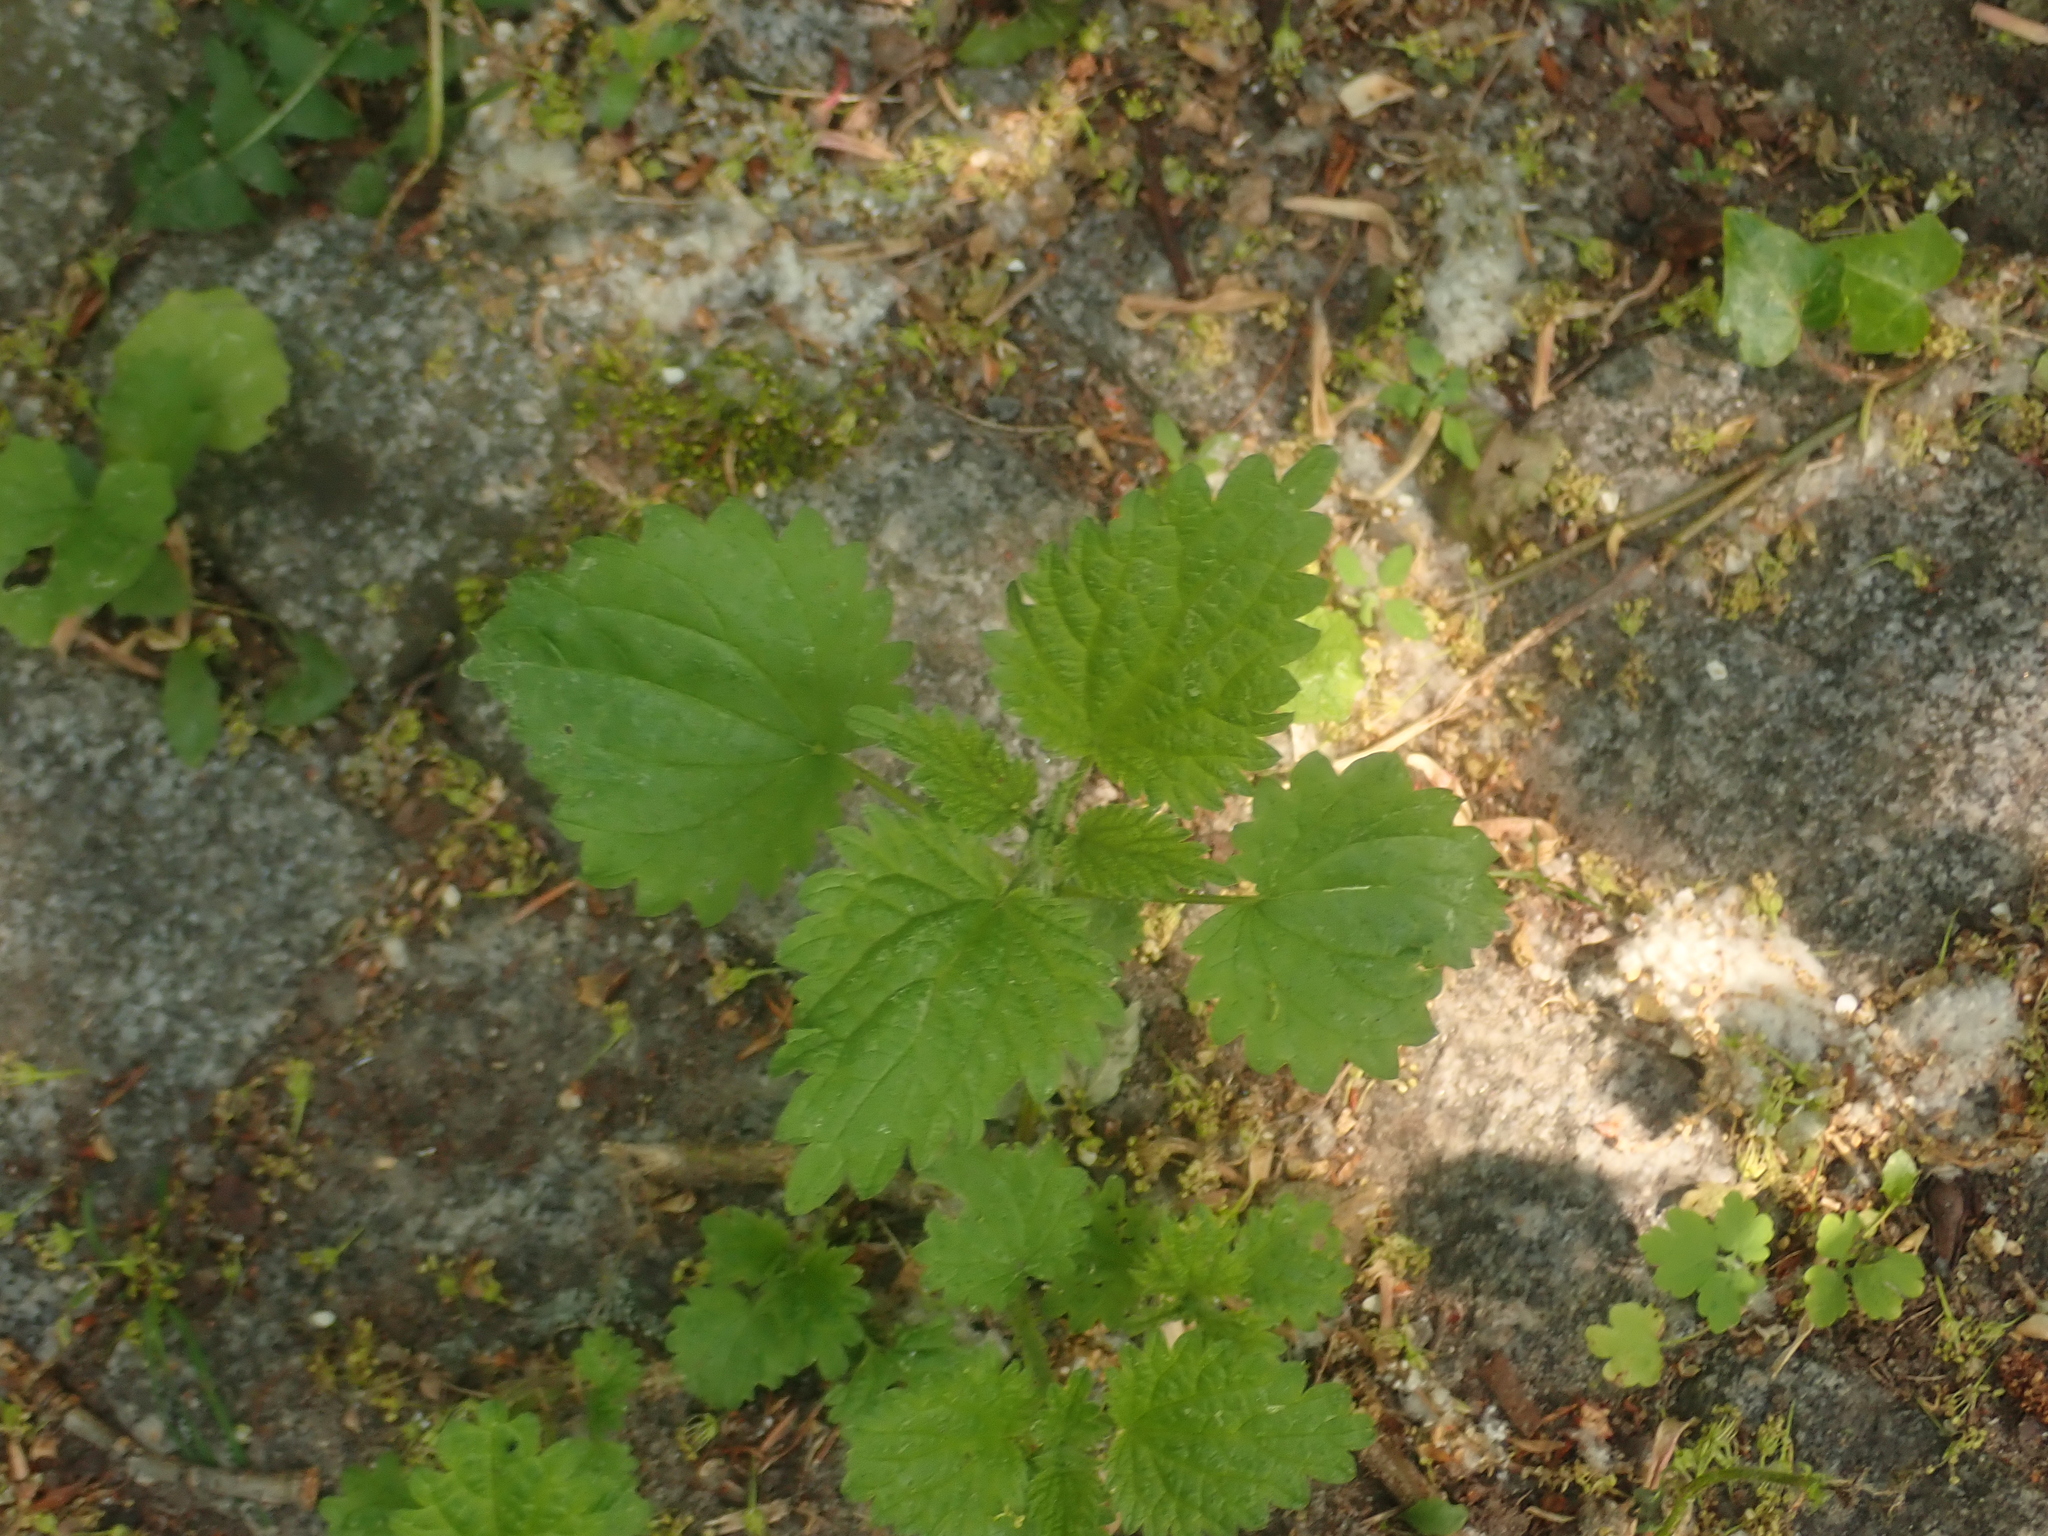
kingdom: Plantae
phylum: Tracheophyta
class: Magnoliopsida
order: Rosales
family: Urticaceae
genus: Urtica
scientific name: Urtica dioica
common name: Common nettle
